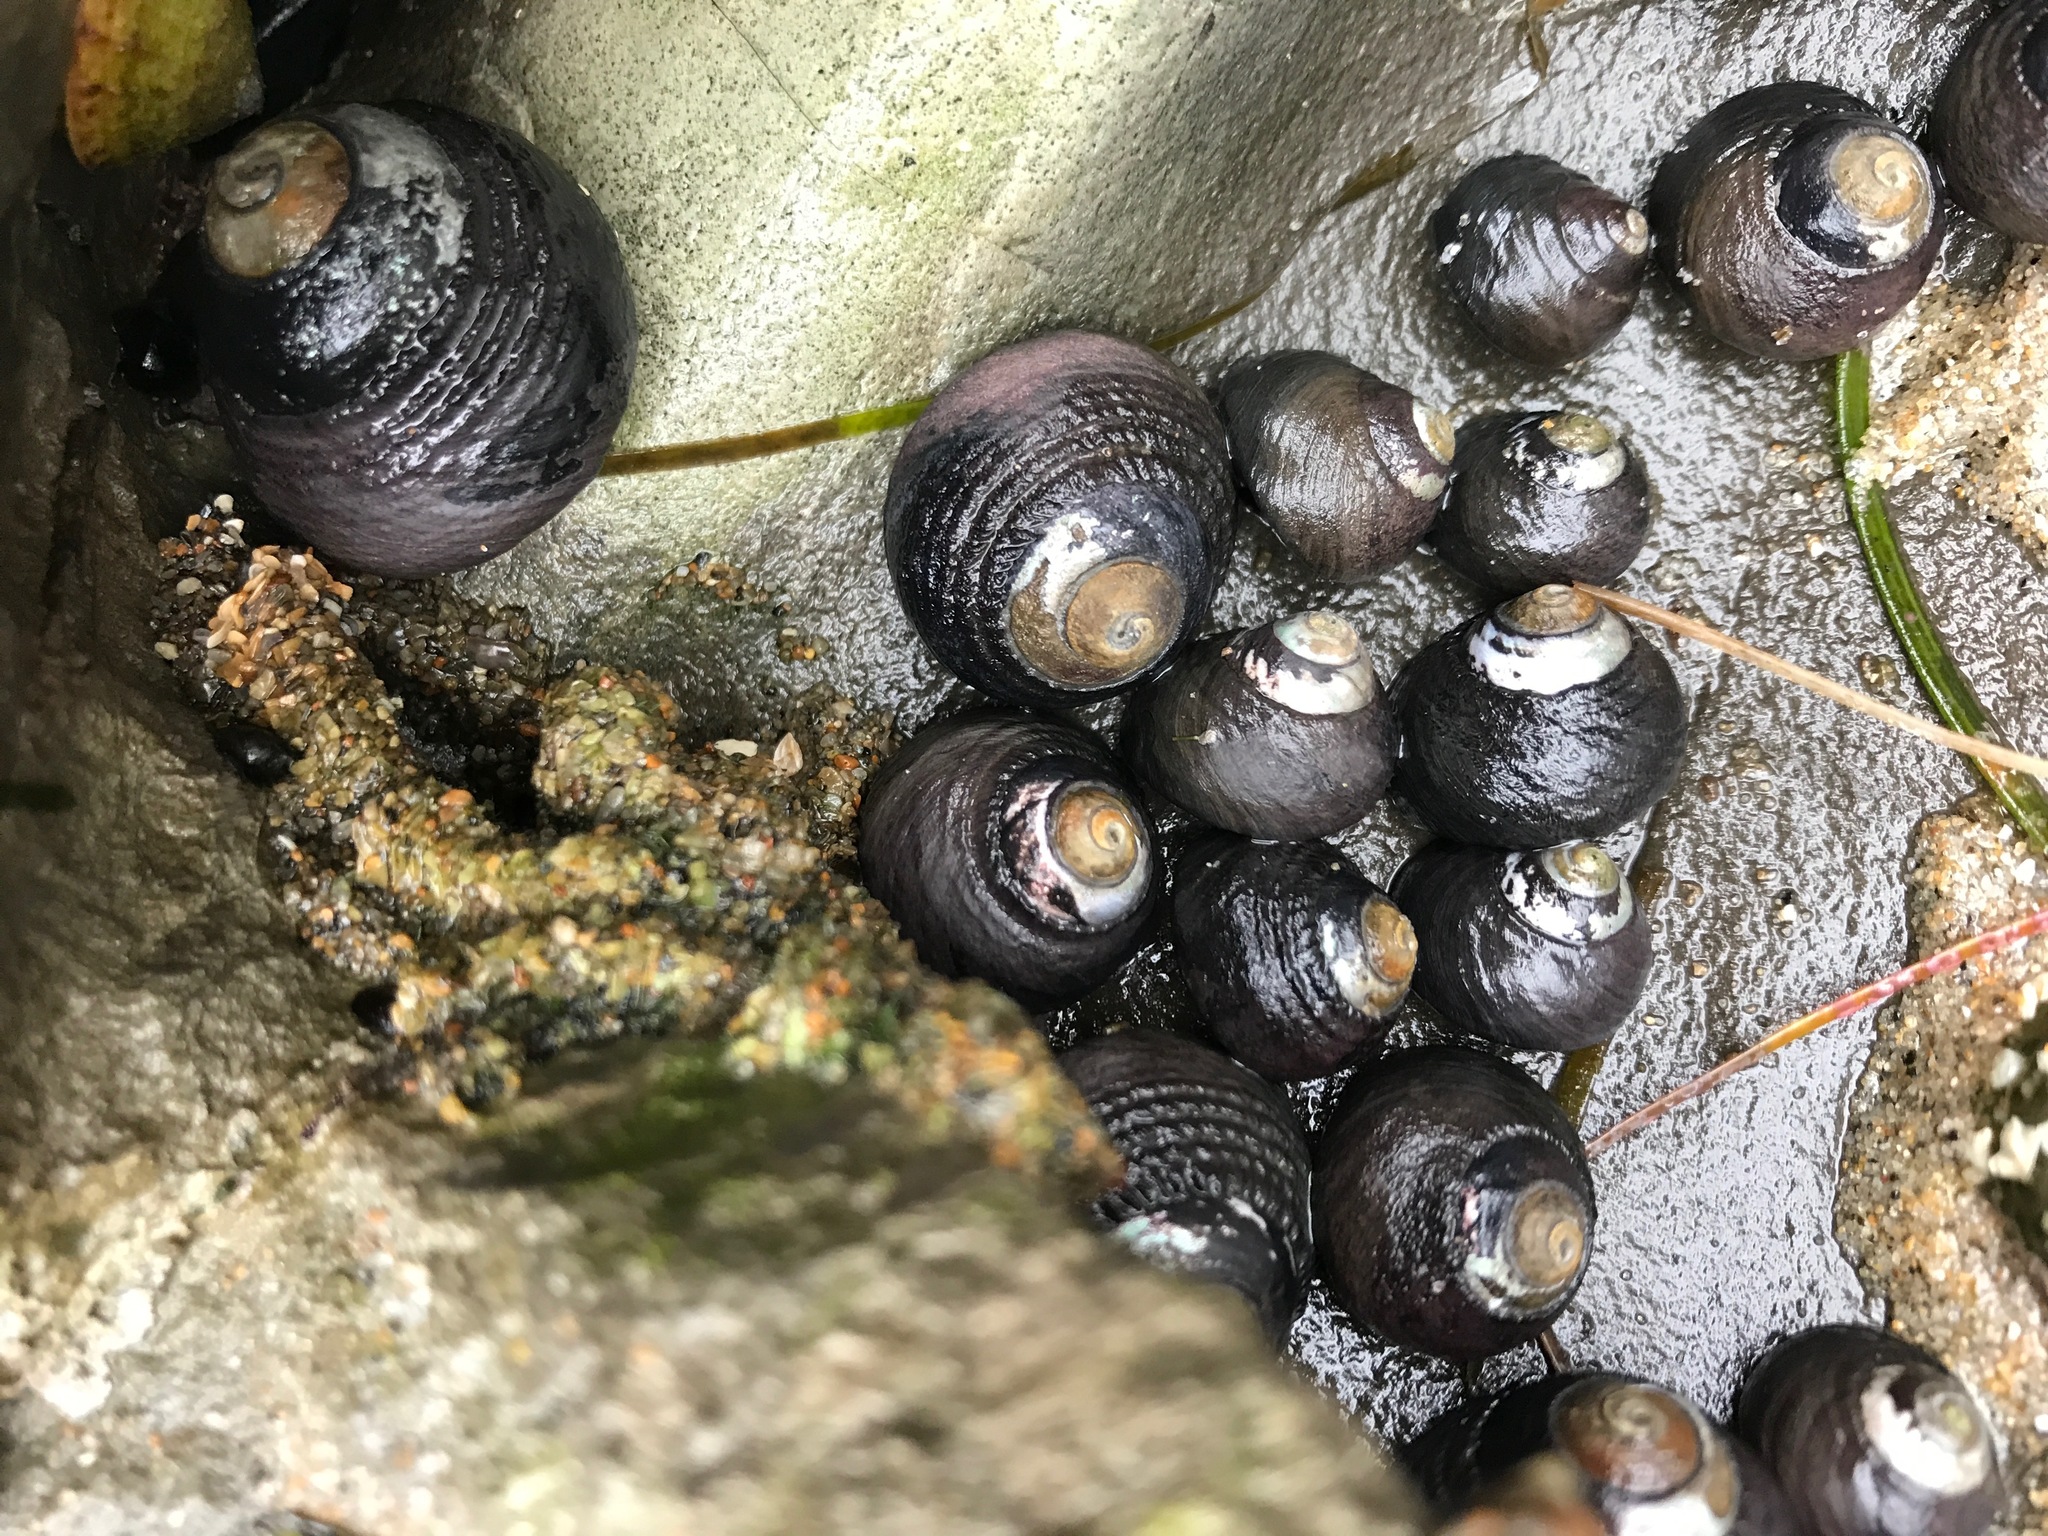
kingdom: Animalia
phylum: Mollusca
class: Gastropoda
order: Trochida
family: Tegulidae
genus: Tegula
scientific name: Tegula funebralis
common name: Black tegula
